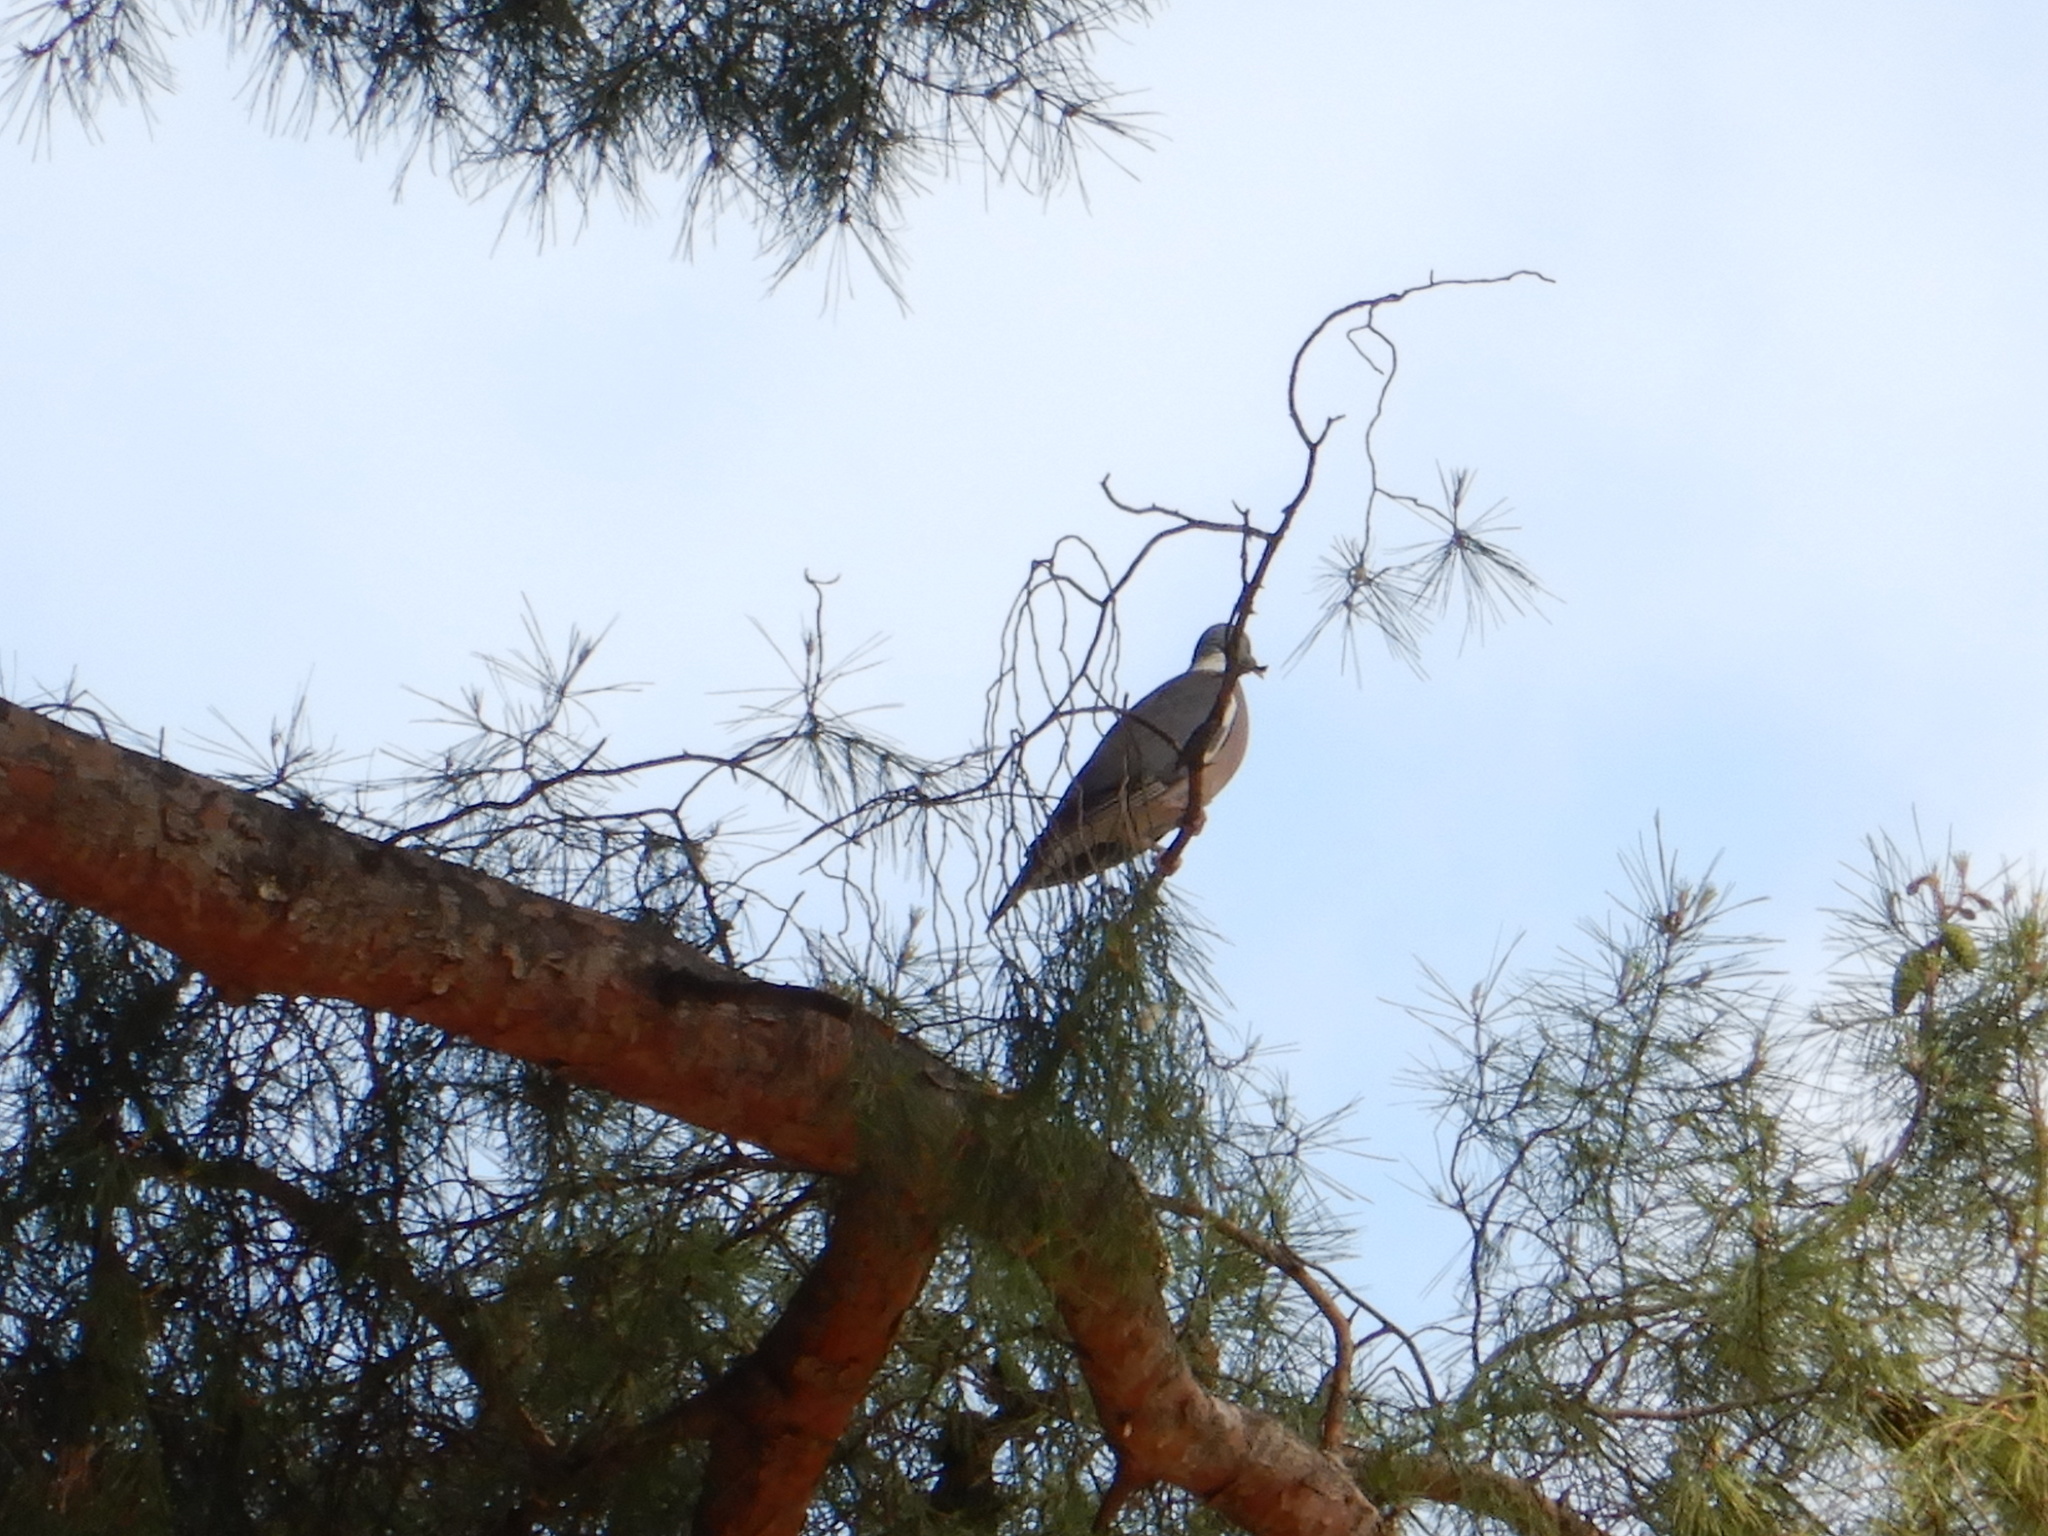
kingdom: Animalia
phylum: Chordata
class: Aves
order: Columbiformes
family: Columbidae
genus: Columba
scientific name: Columba palumbus
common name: Common wood pigeon
